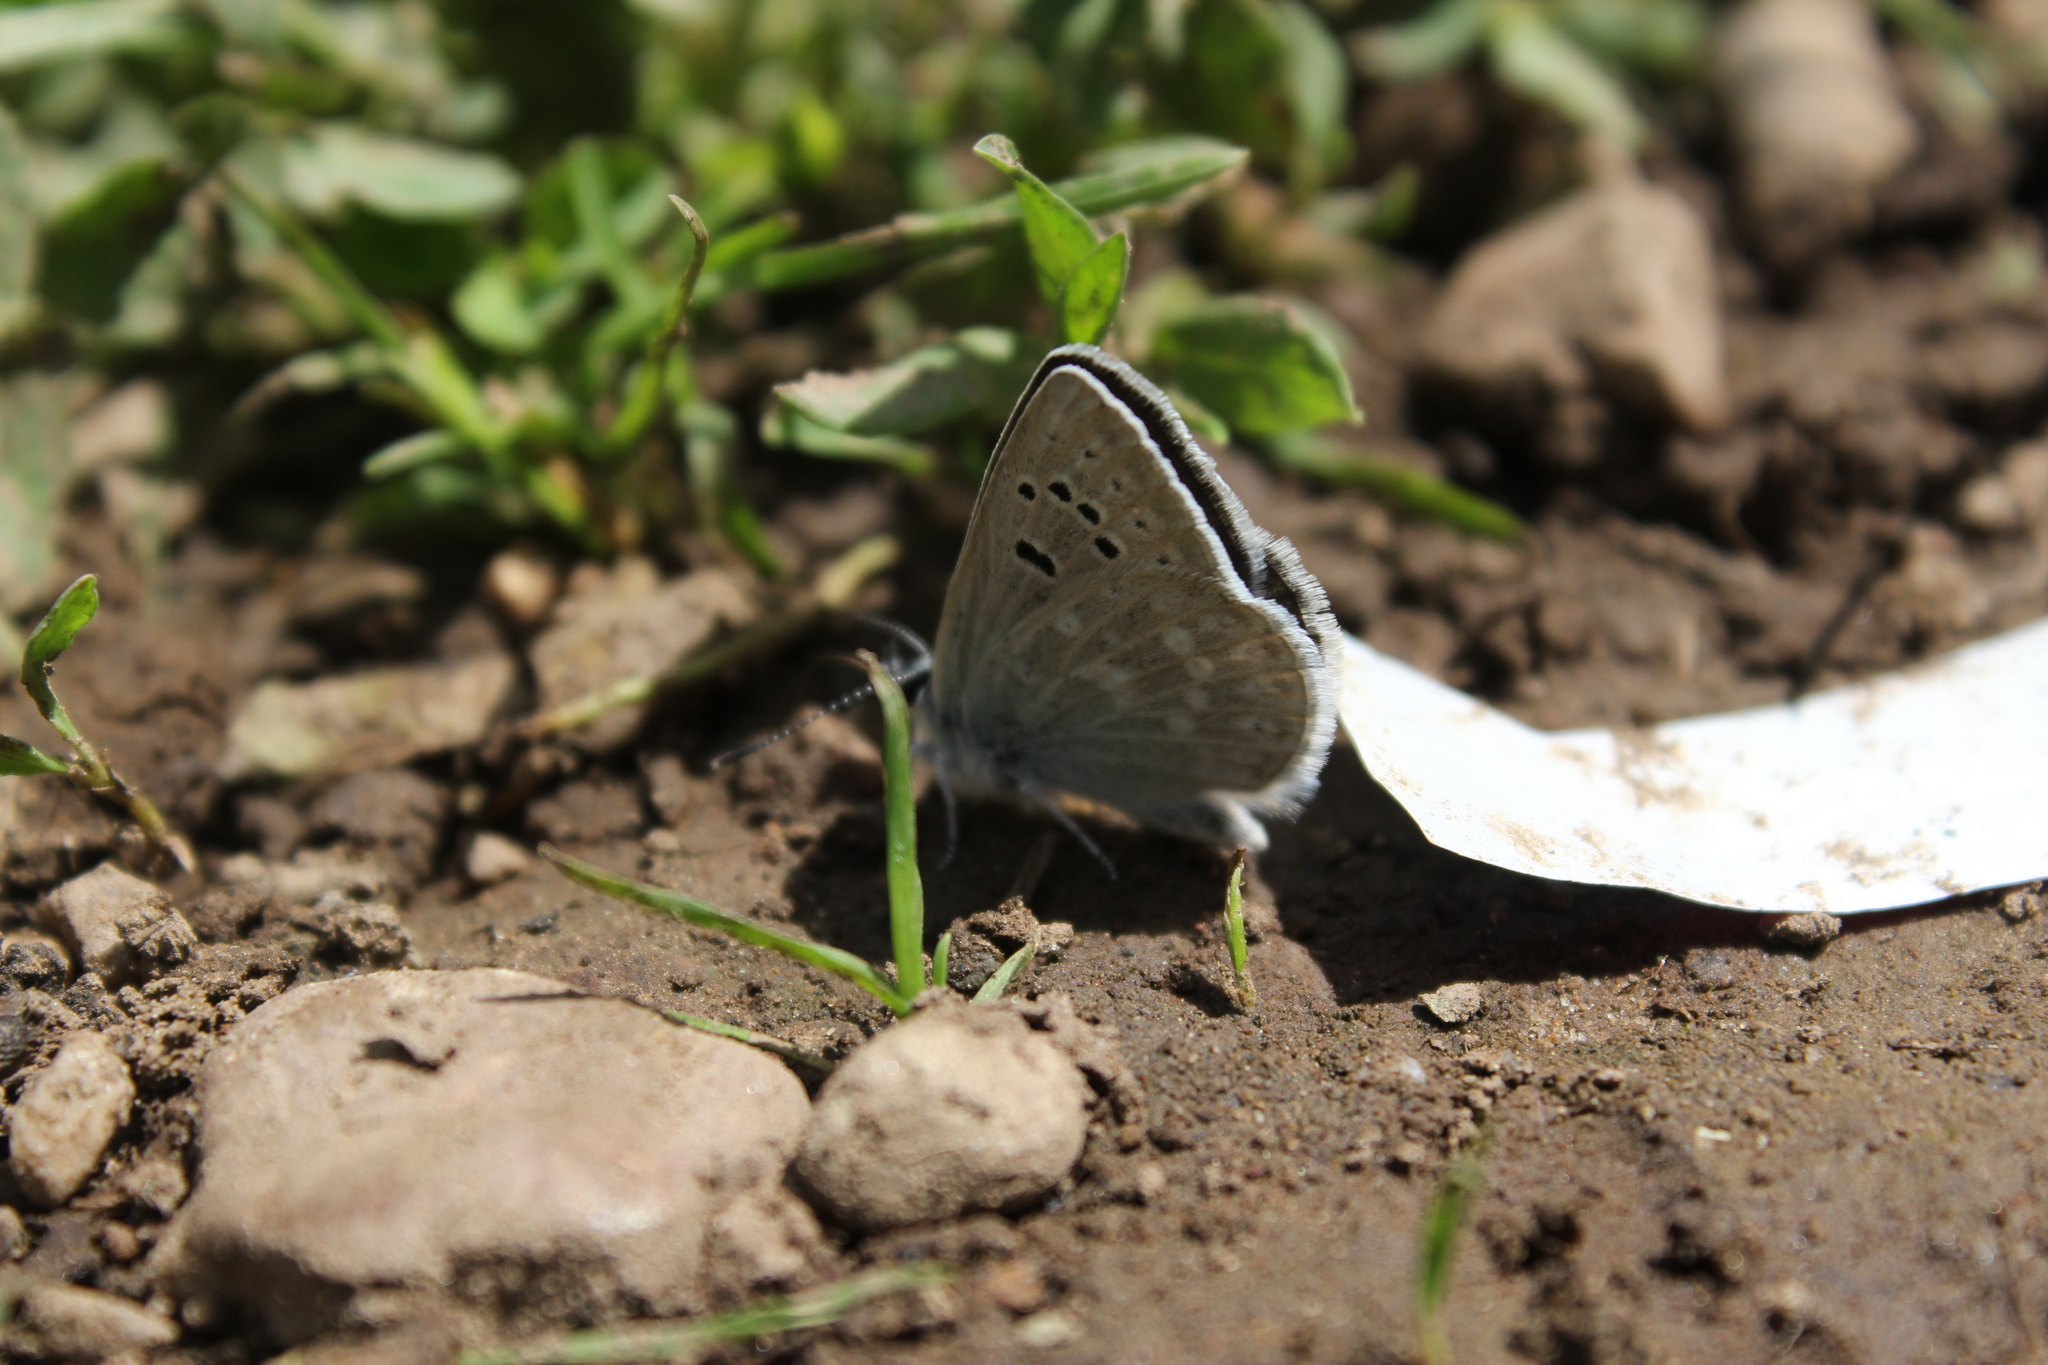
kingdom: Animalia
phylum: Arthropoda
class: Insecta
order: Lepidoptera
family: Lycaenidae
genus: Icaricia
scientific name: Icaricia icarioides
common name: Boisduval's blue
